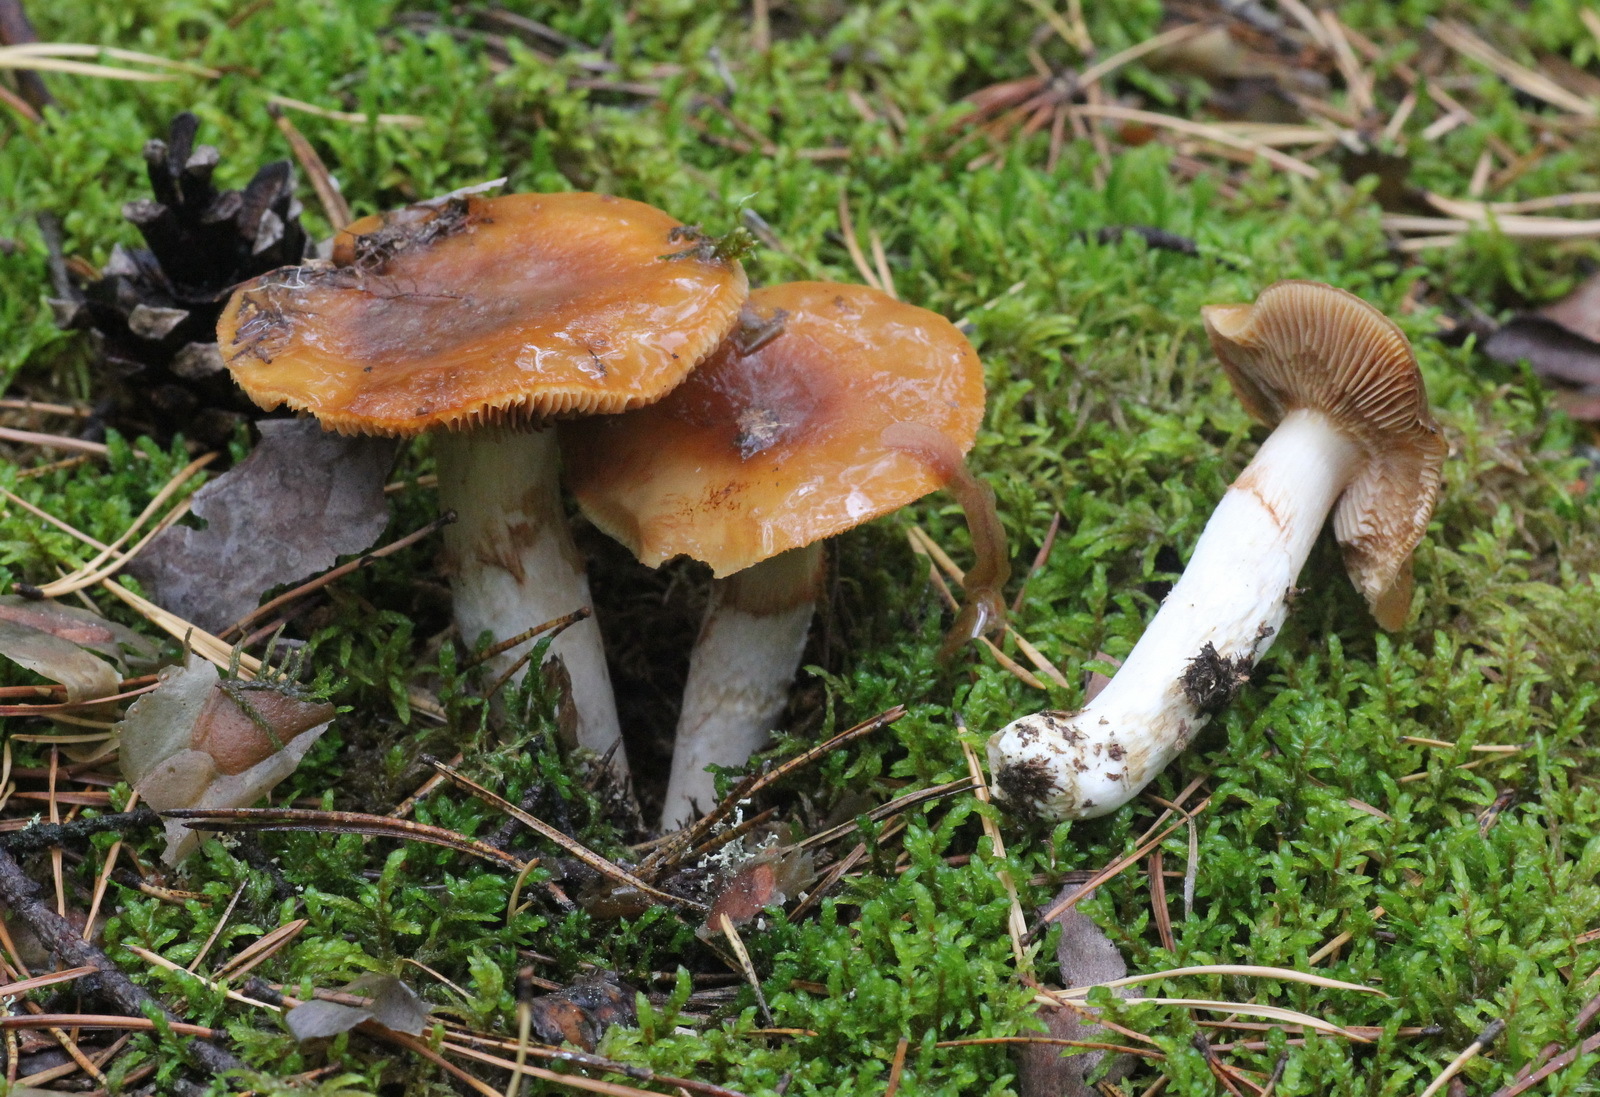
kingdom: Fungi
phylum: Basidiomycota
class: Agaricomycetes
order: Agaricales
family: Cortinariaceae
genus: Cortinarius
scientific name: Cortinarius mucosus
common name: Orange webcap
